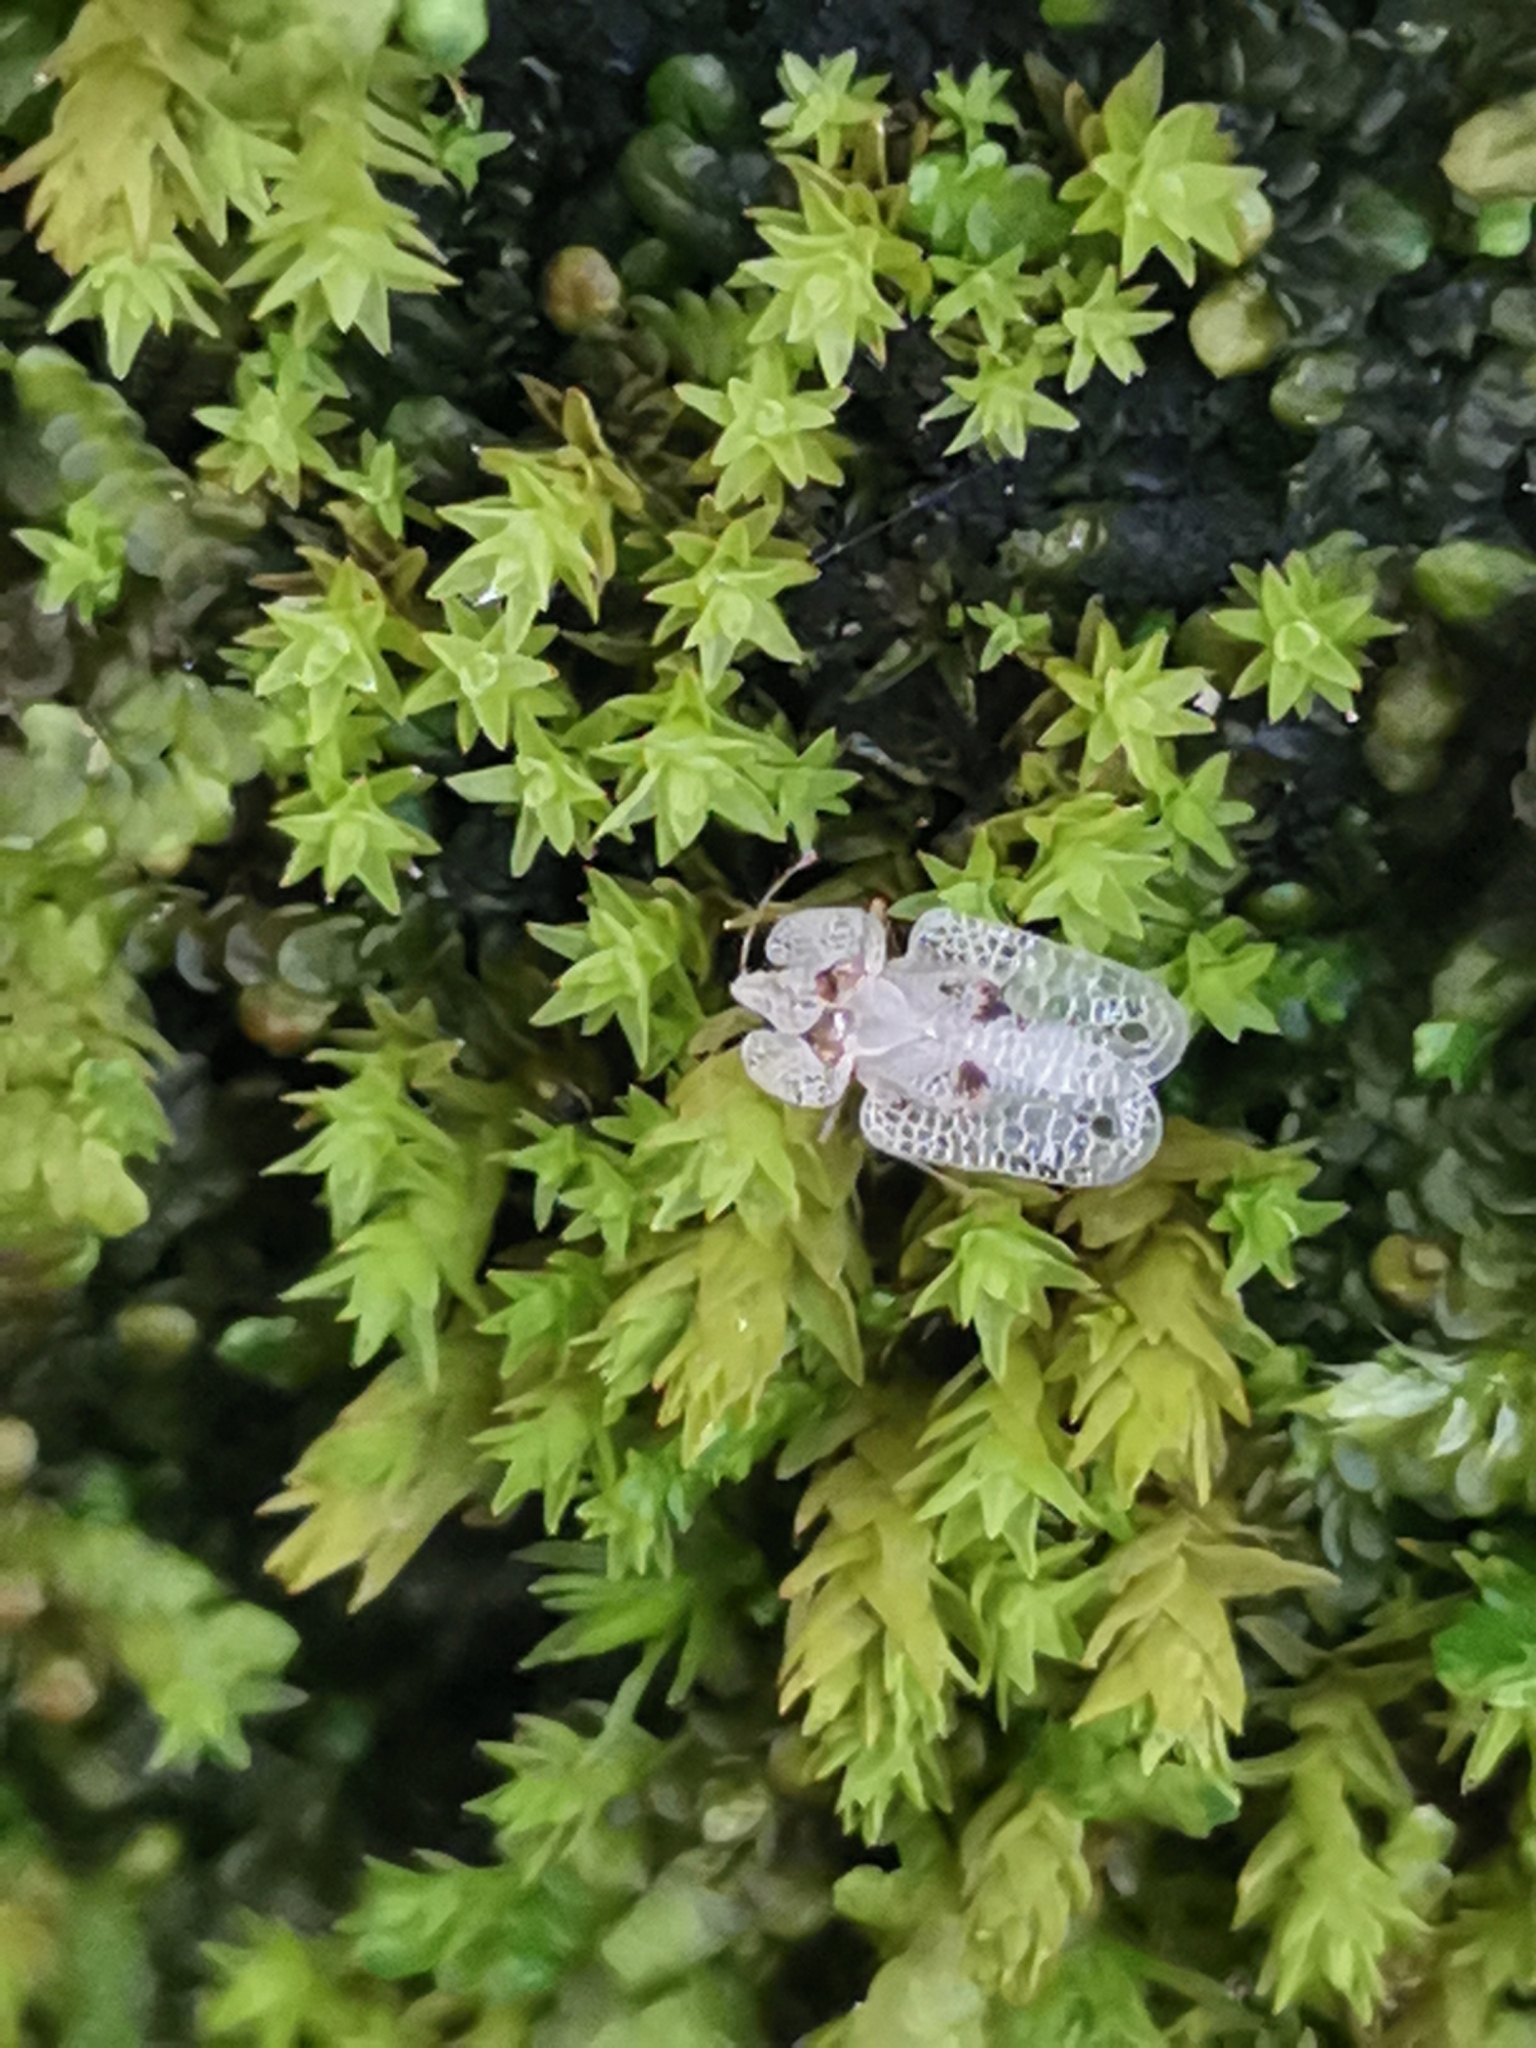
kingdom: Animalia
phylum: Arthropoda
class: Insecta
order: Hemiptera
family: Tingidae
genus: Corythucha
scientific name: Corythucha ciliata
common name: Sycamore lace bug
